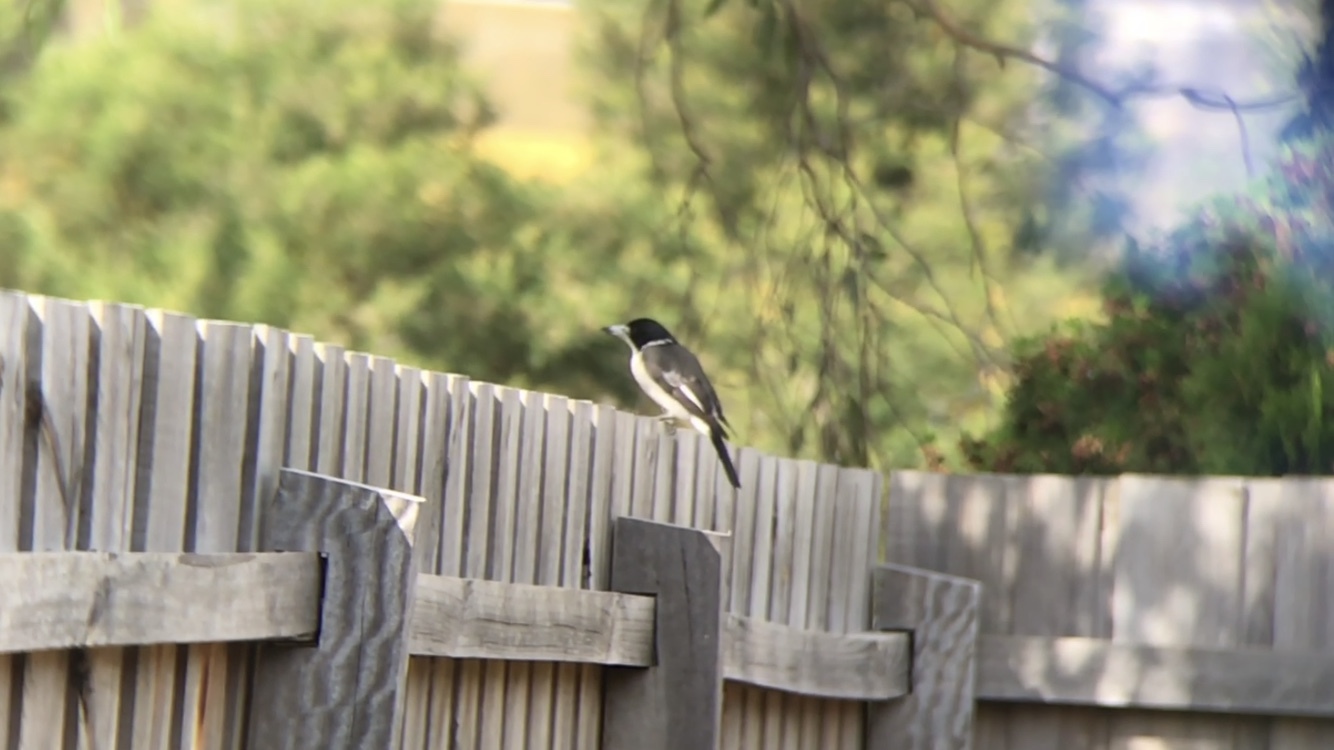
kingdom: Animalia
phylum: Chordata
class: Aves
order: Passeriformes
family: Cracticidae
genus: Cracticus
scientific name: Cracticus torquatus
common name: Grey butcherbird
